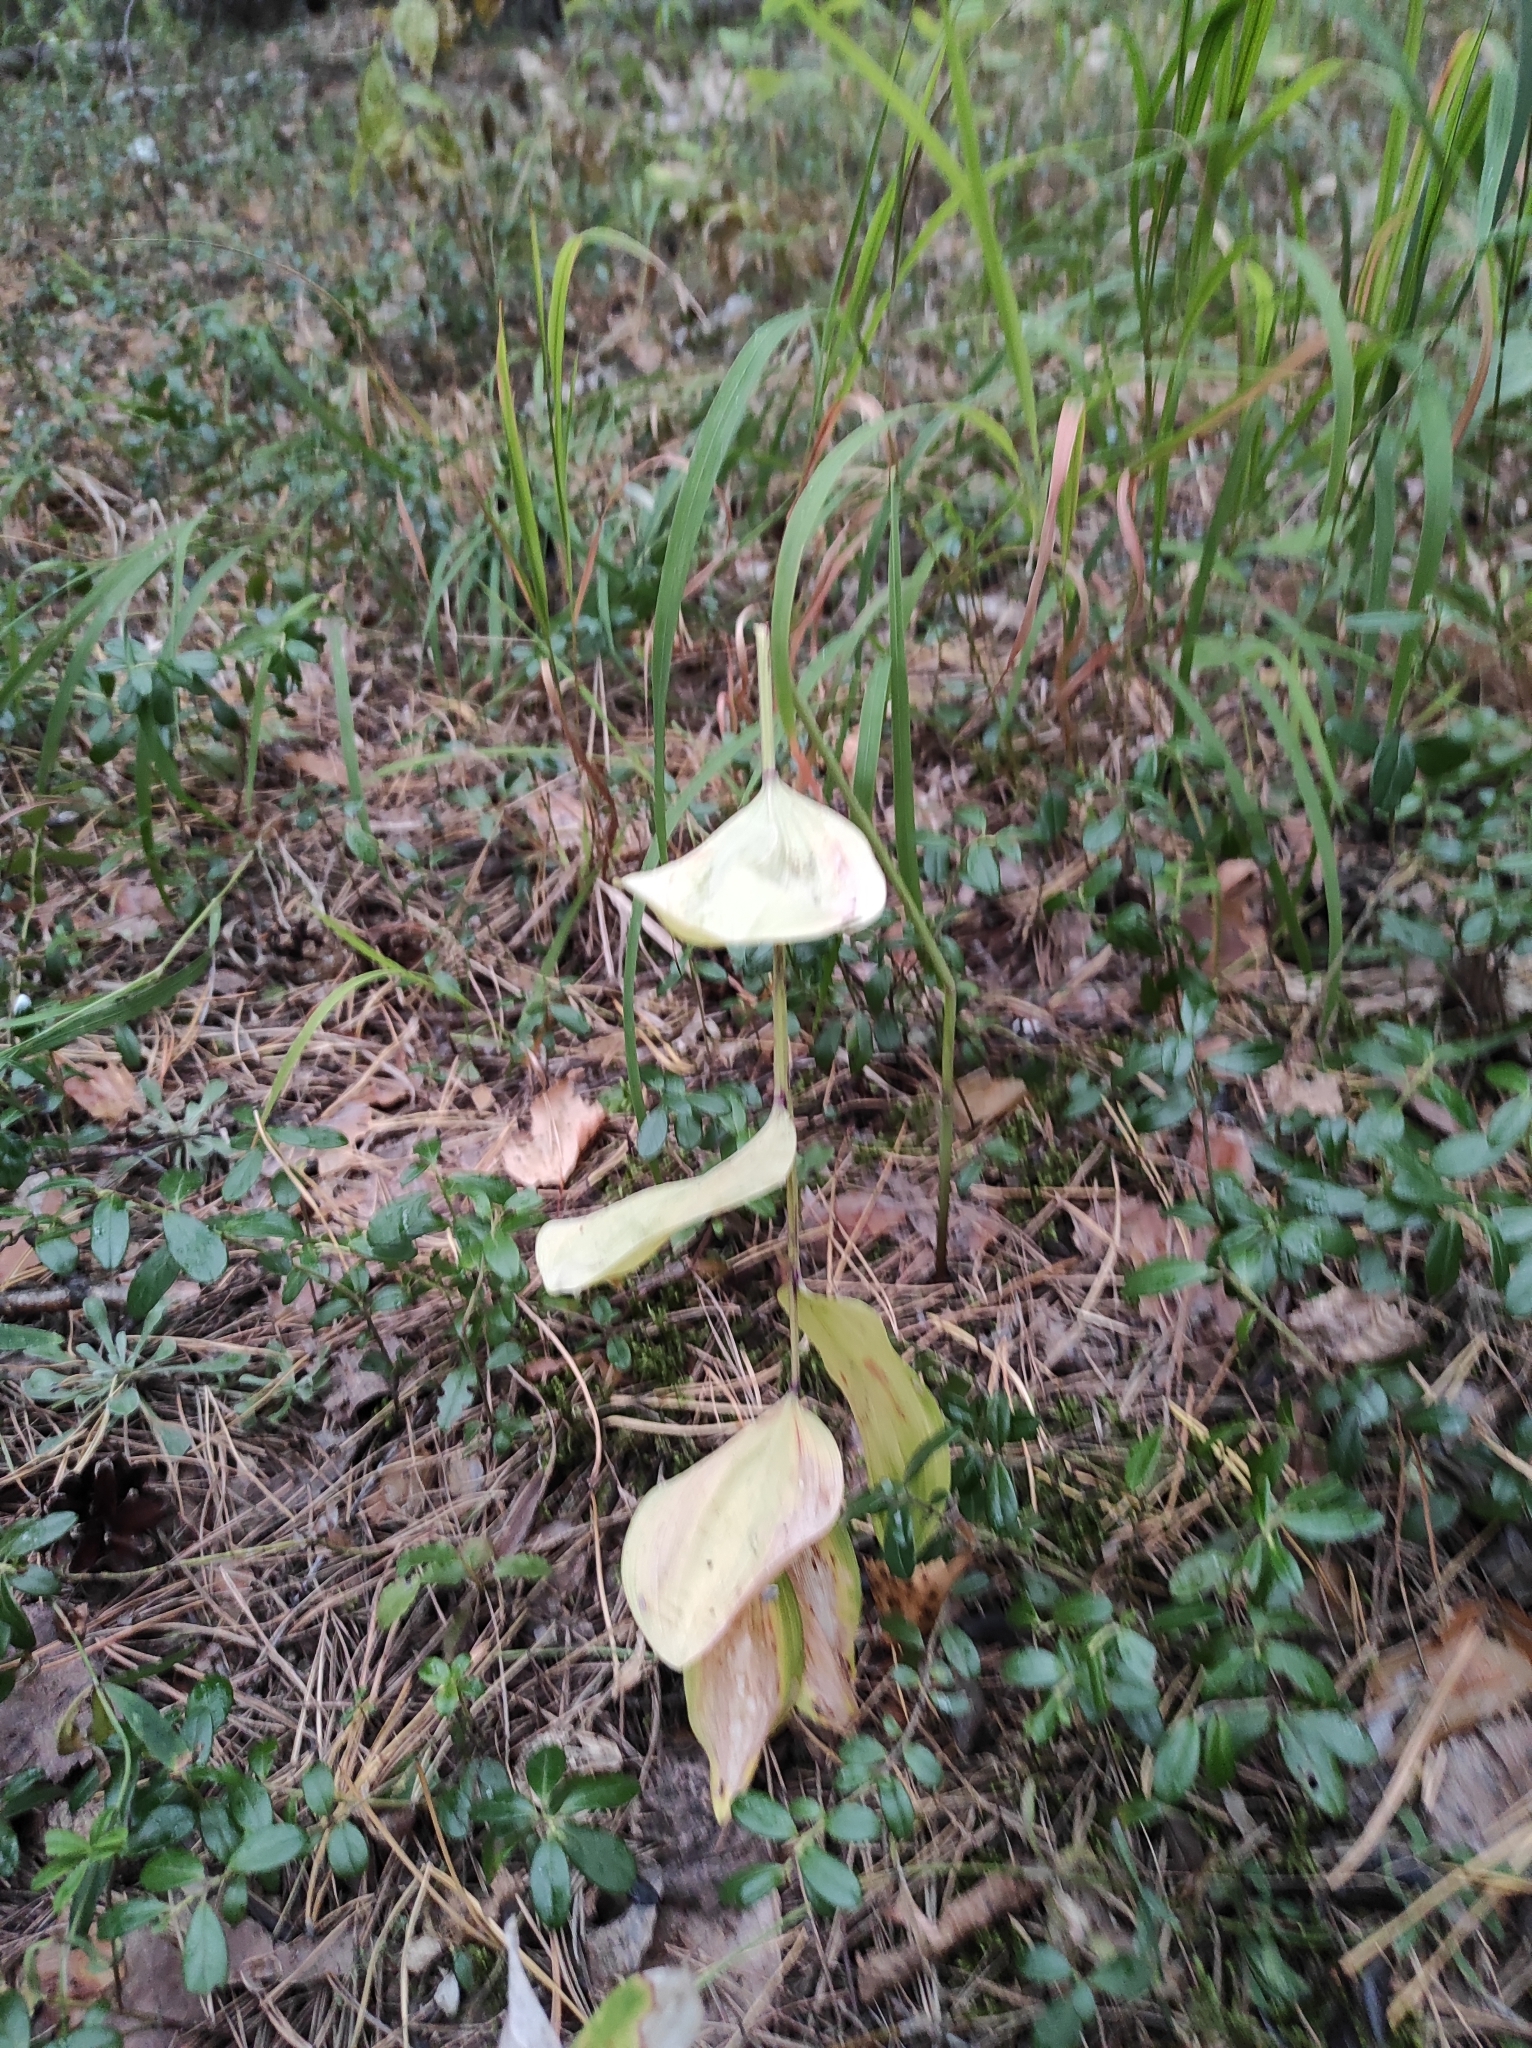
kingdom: Plantae
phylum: Tracheophyta
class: Liliopsida
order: Asparagales
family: Asparagaceae
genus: Polygonatum
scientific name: Polygonatum odoratum
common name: Angular solomon's-seal
